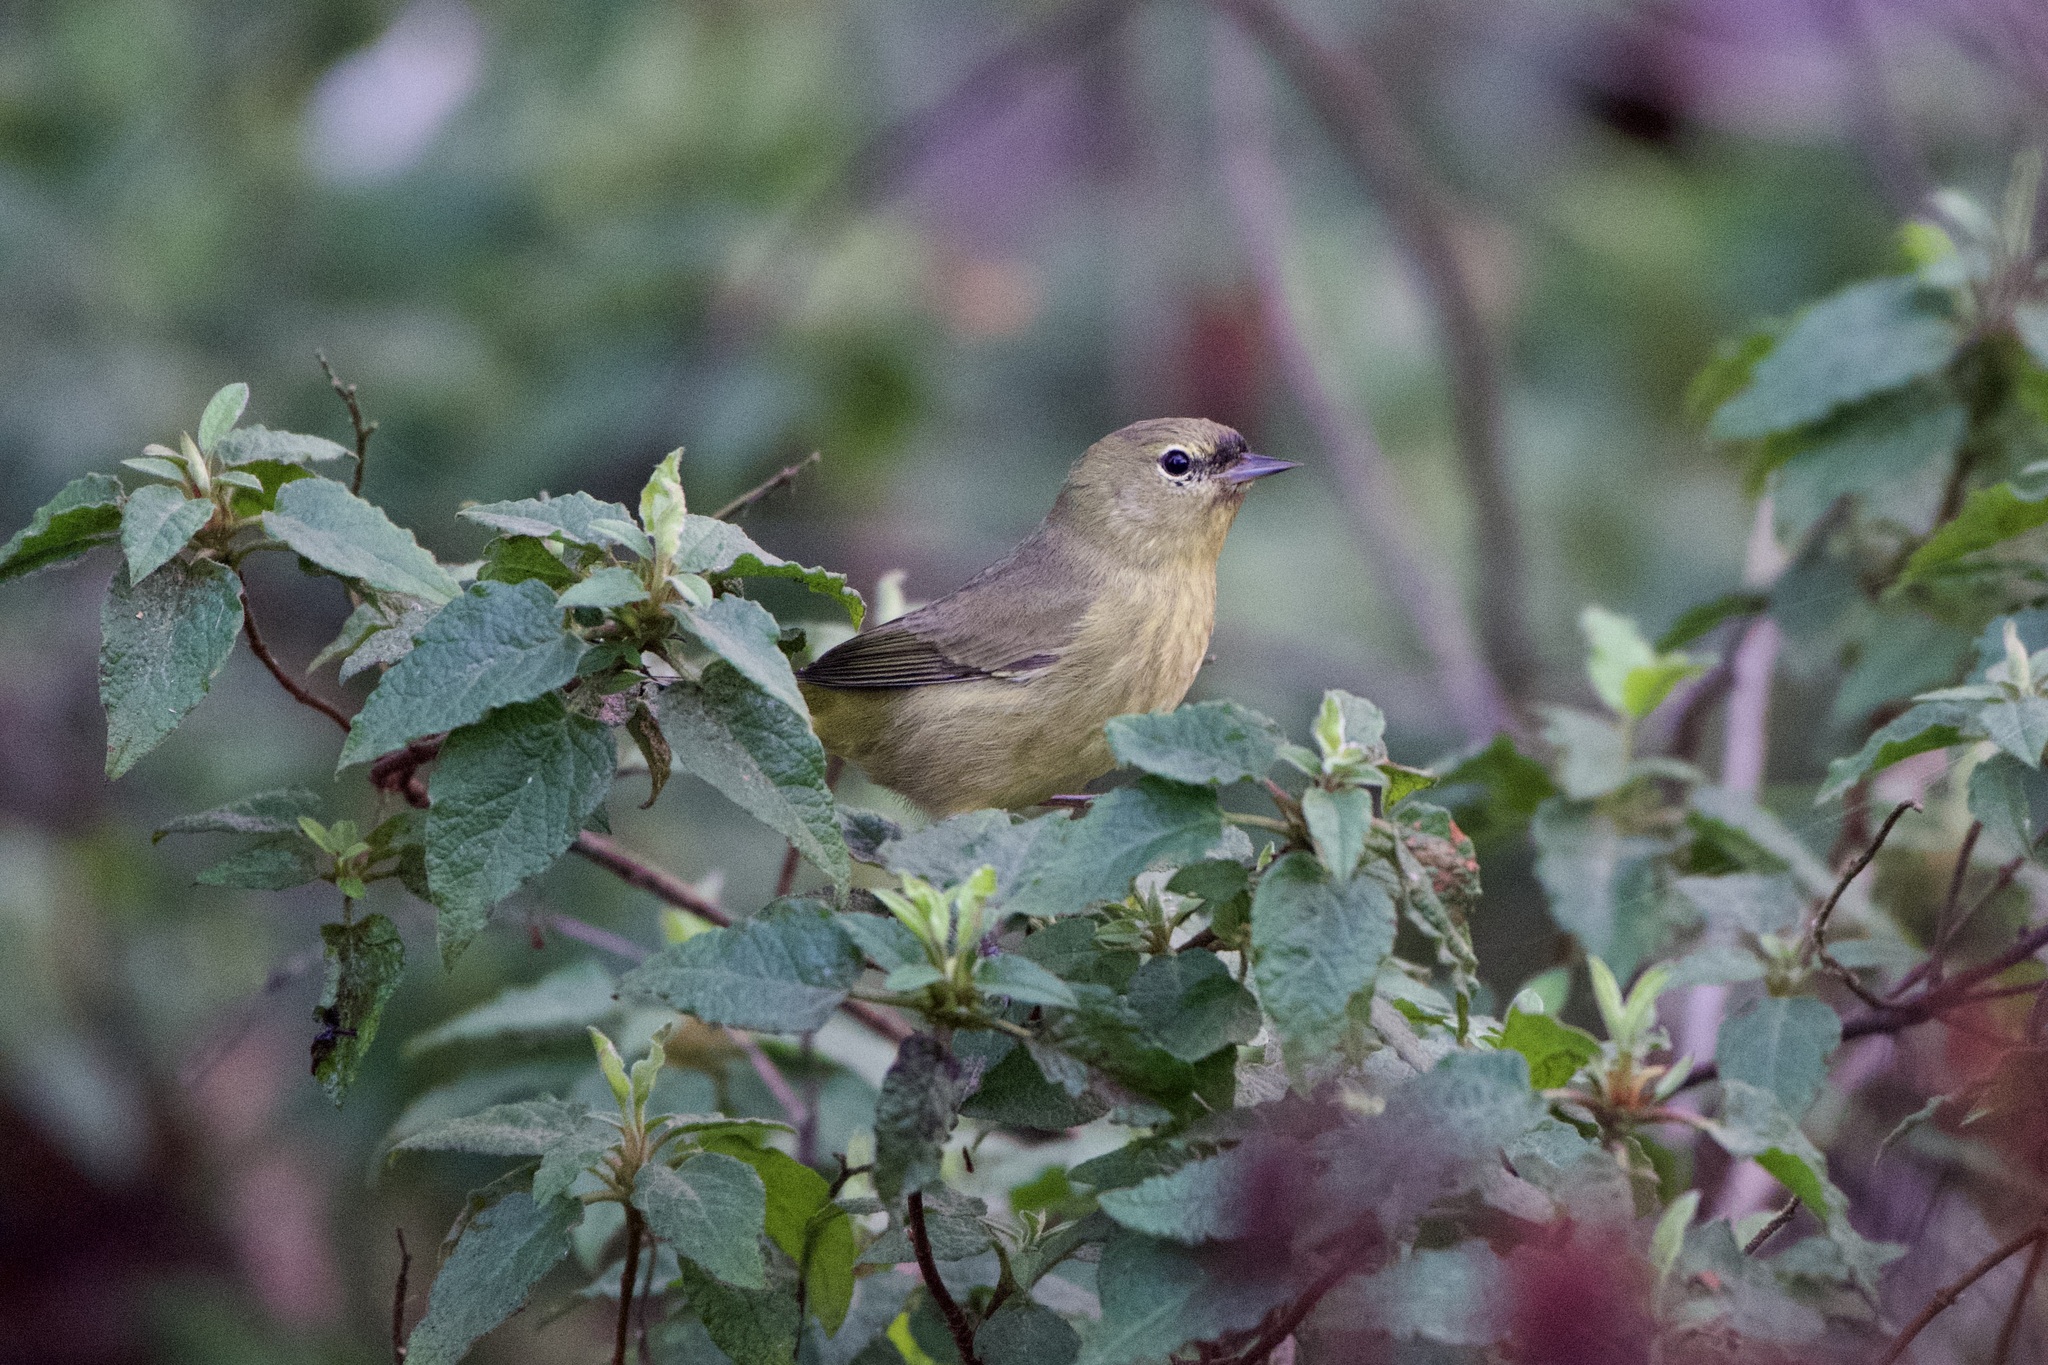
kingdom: Animalia
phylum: Chordata
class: Aves
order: Passeriformes
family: Parulidae
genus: Leiothlypis
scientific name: Leiothlypis celata
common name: Orange-crowned warbler
